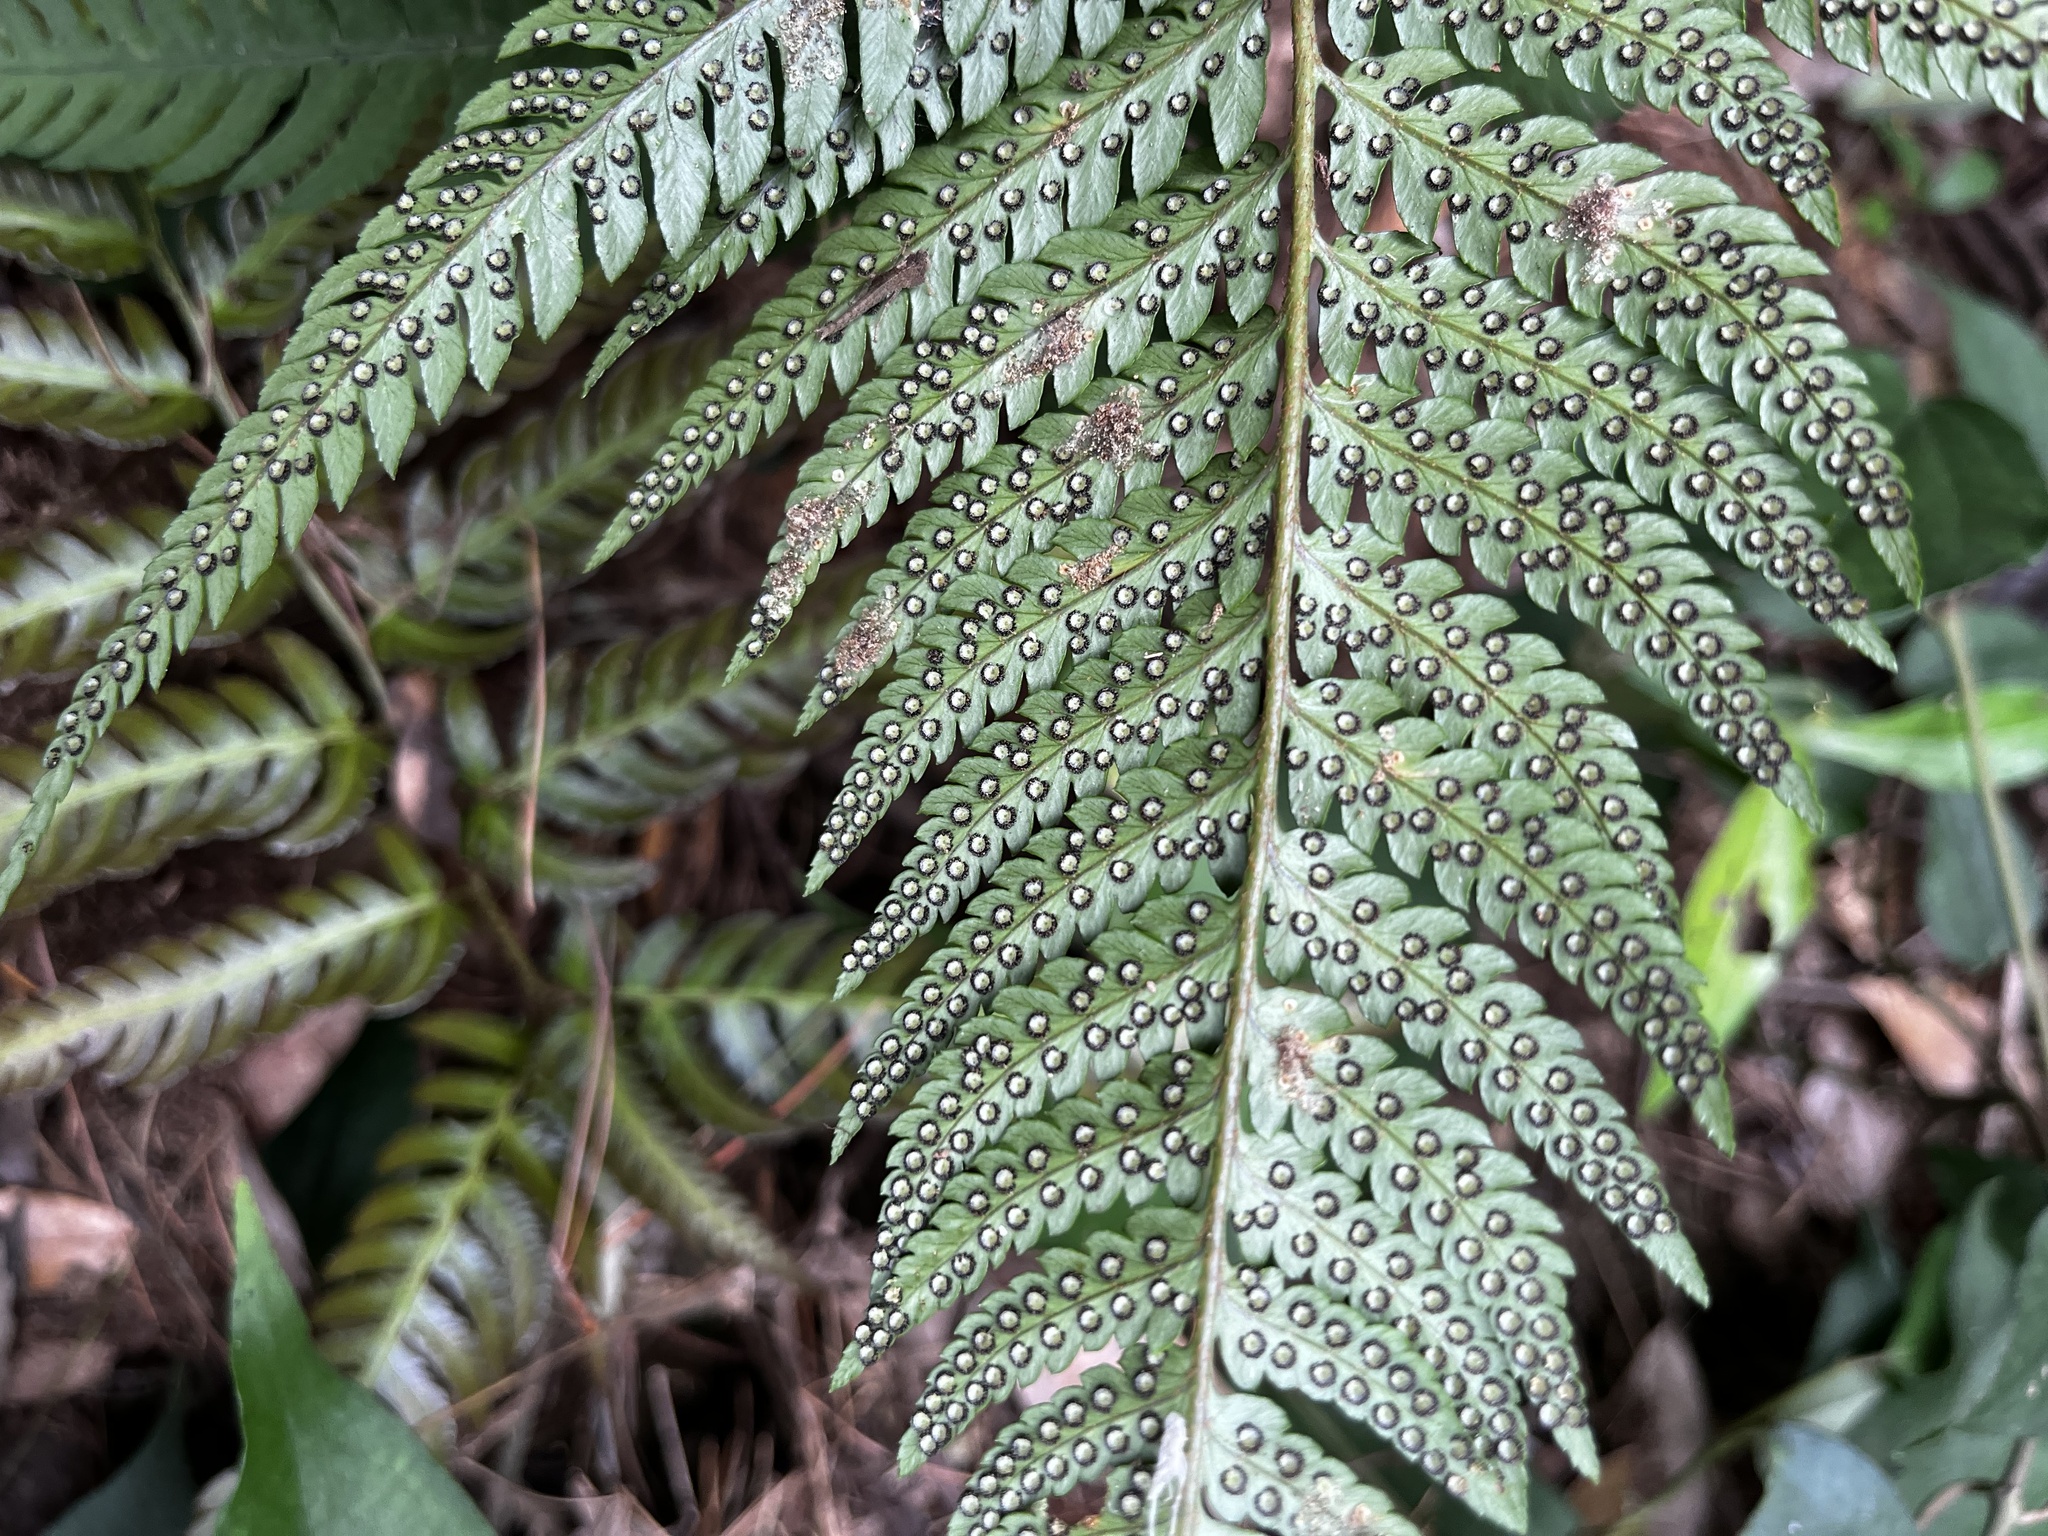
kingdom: Plantae
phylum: Tracheophyta
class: Polypodiopsida
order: Polypodiales
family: Dryopteridaceae
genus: Dryopteris
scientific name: Dryopteris varia
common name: Japanese holly fern
